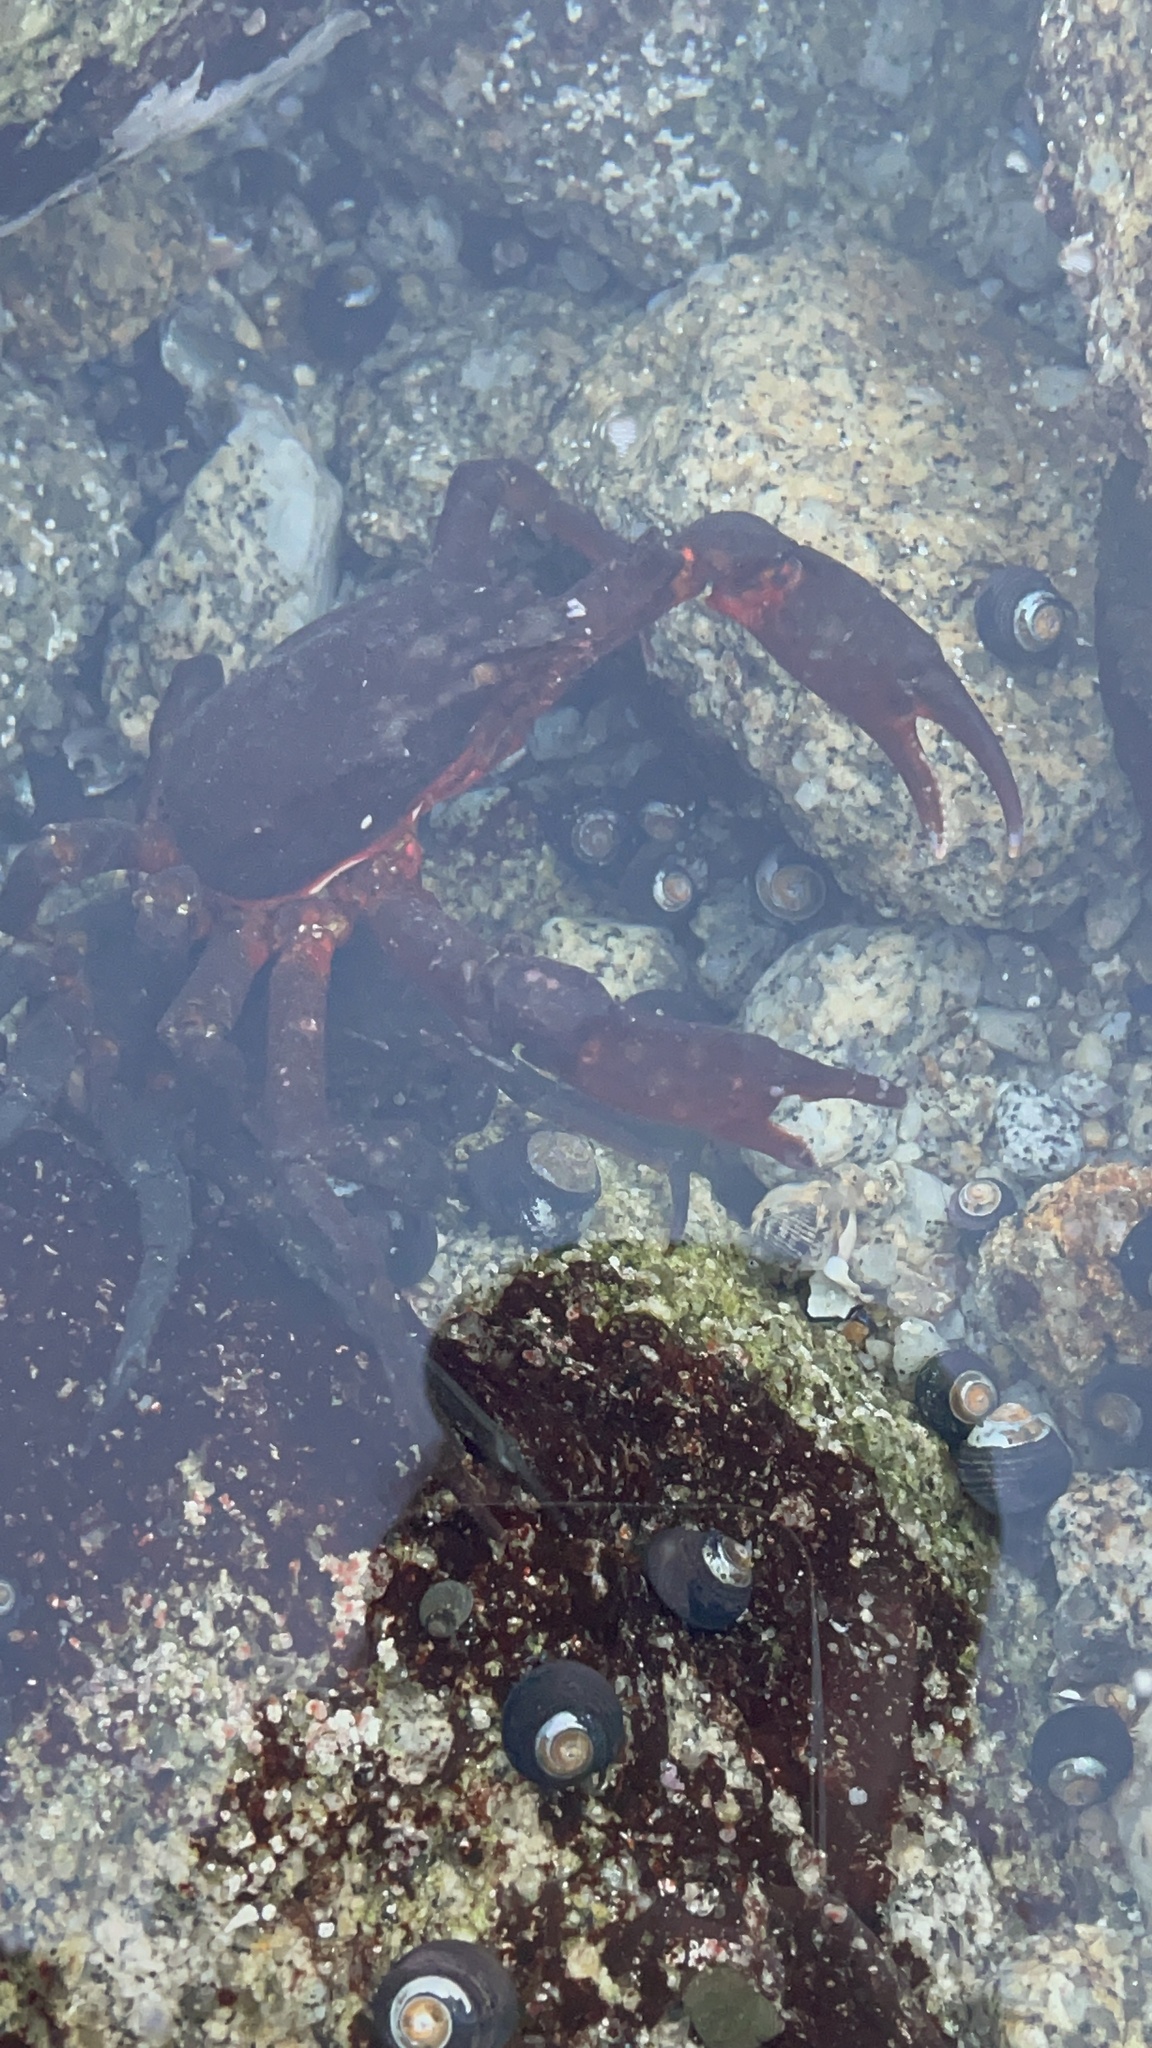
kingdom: Animalia
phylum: Arthropoda
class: Malacostraca
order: Decapoda
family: Epialtidae
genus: Pugettia
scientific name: Pugettia producta
